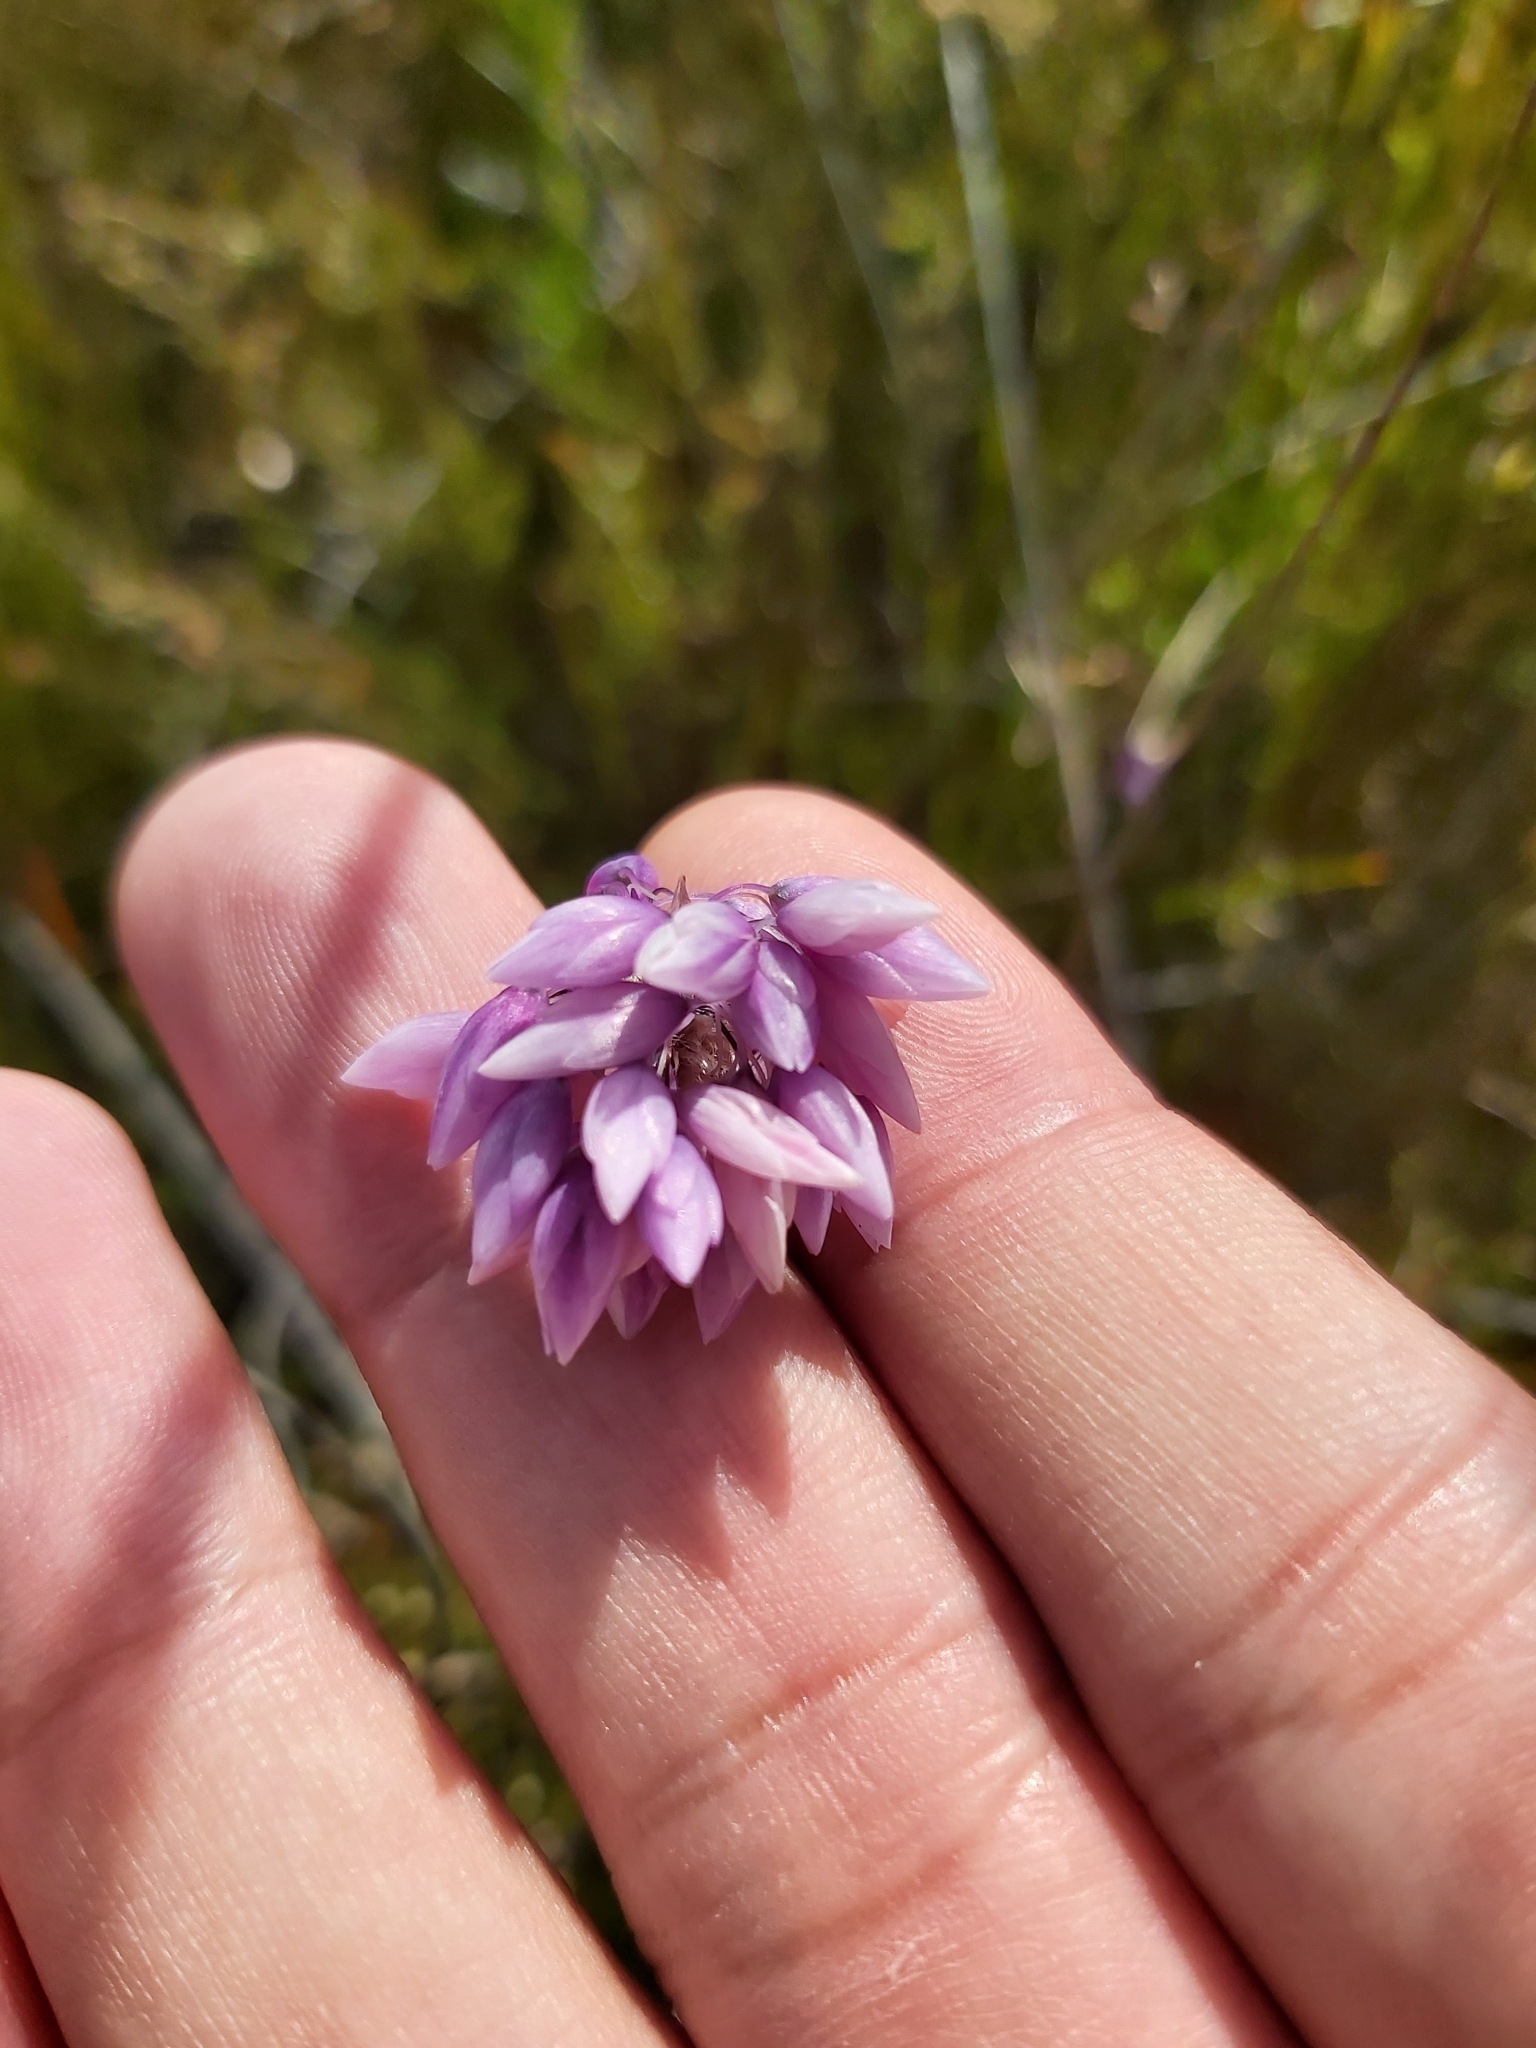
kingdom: Plantae
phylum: Tracheophyta
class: Liliopsida
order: Asparagales
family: Asparagaceae
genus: Sowerbaea
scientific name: Sowerbaea juncea
